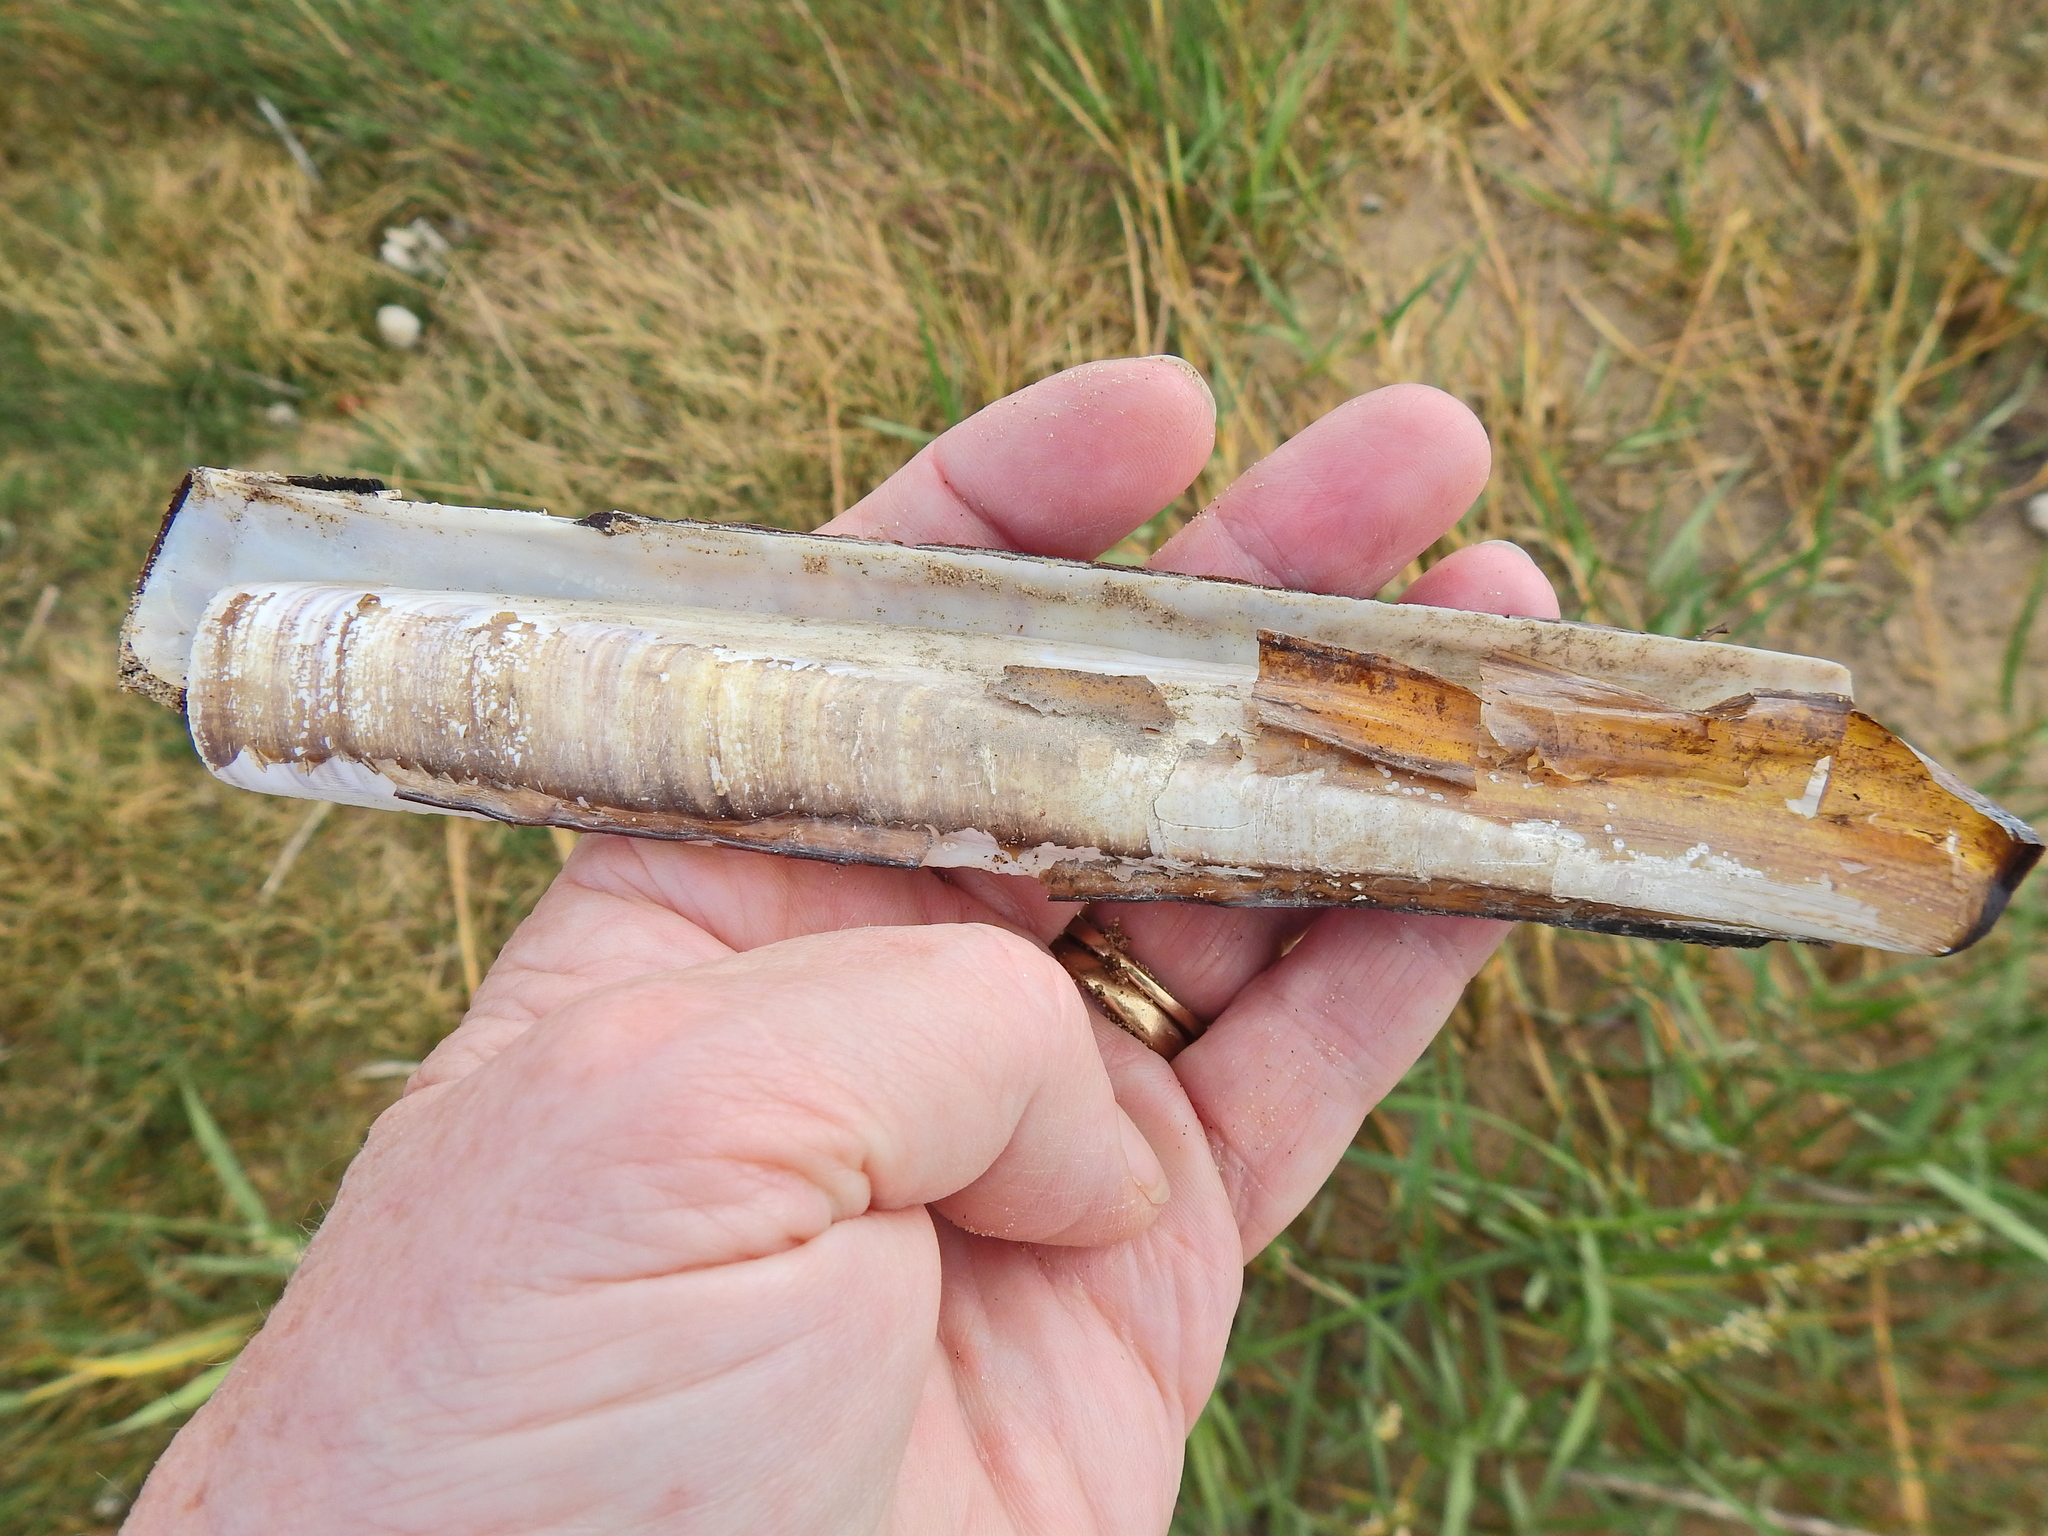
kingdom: Animalia
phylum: Mollusca
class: Bivalvia
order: Adapedonta
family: Pharidae
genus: Ensis
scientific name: Ensis siliqua
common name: Pod razor shell
